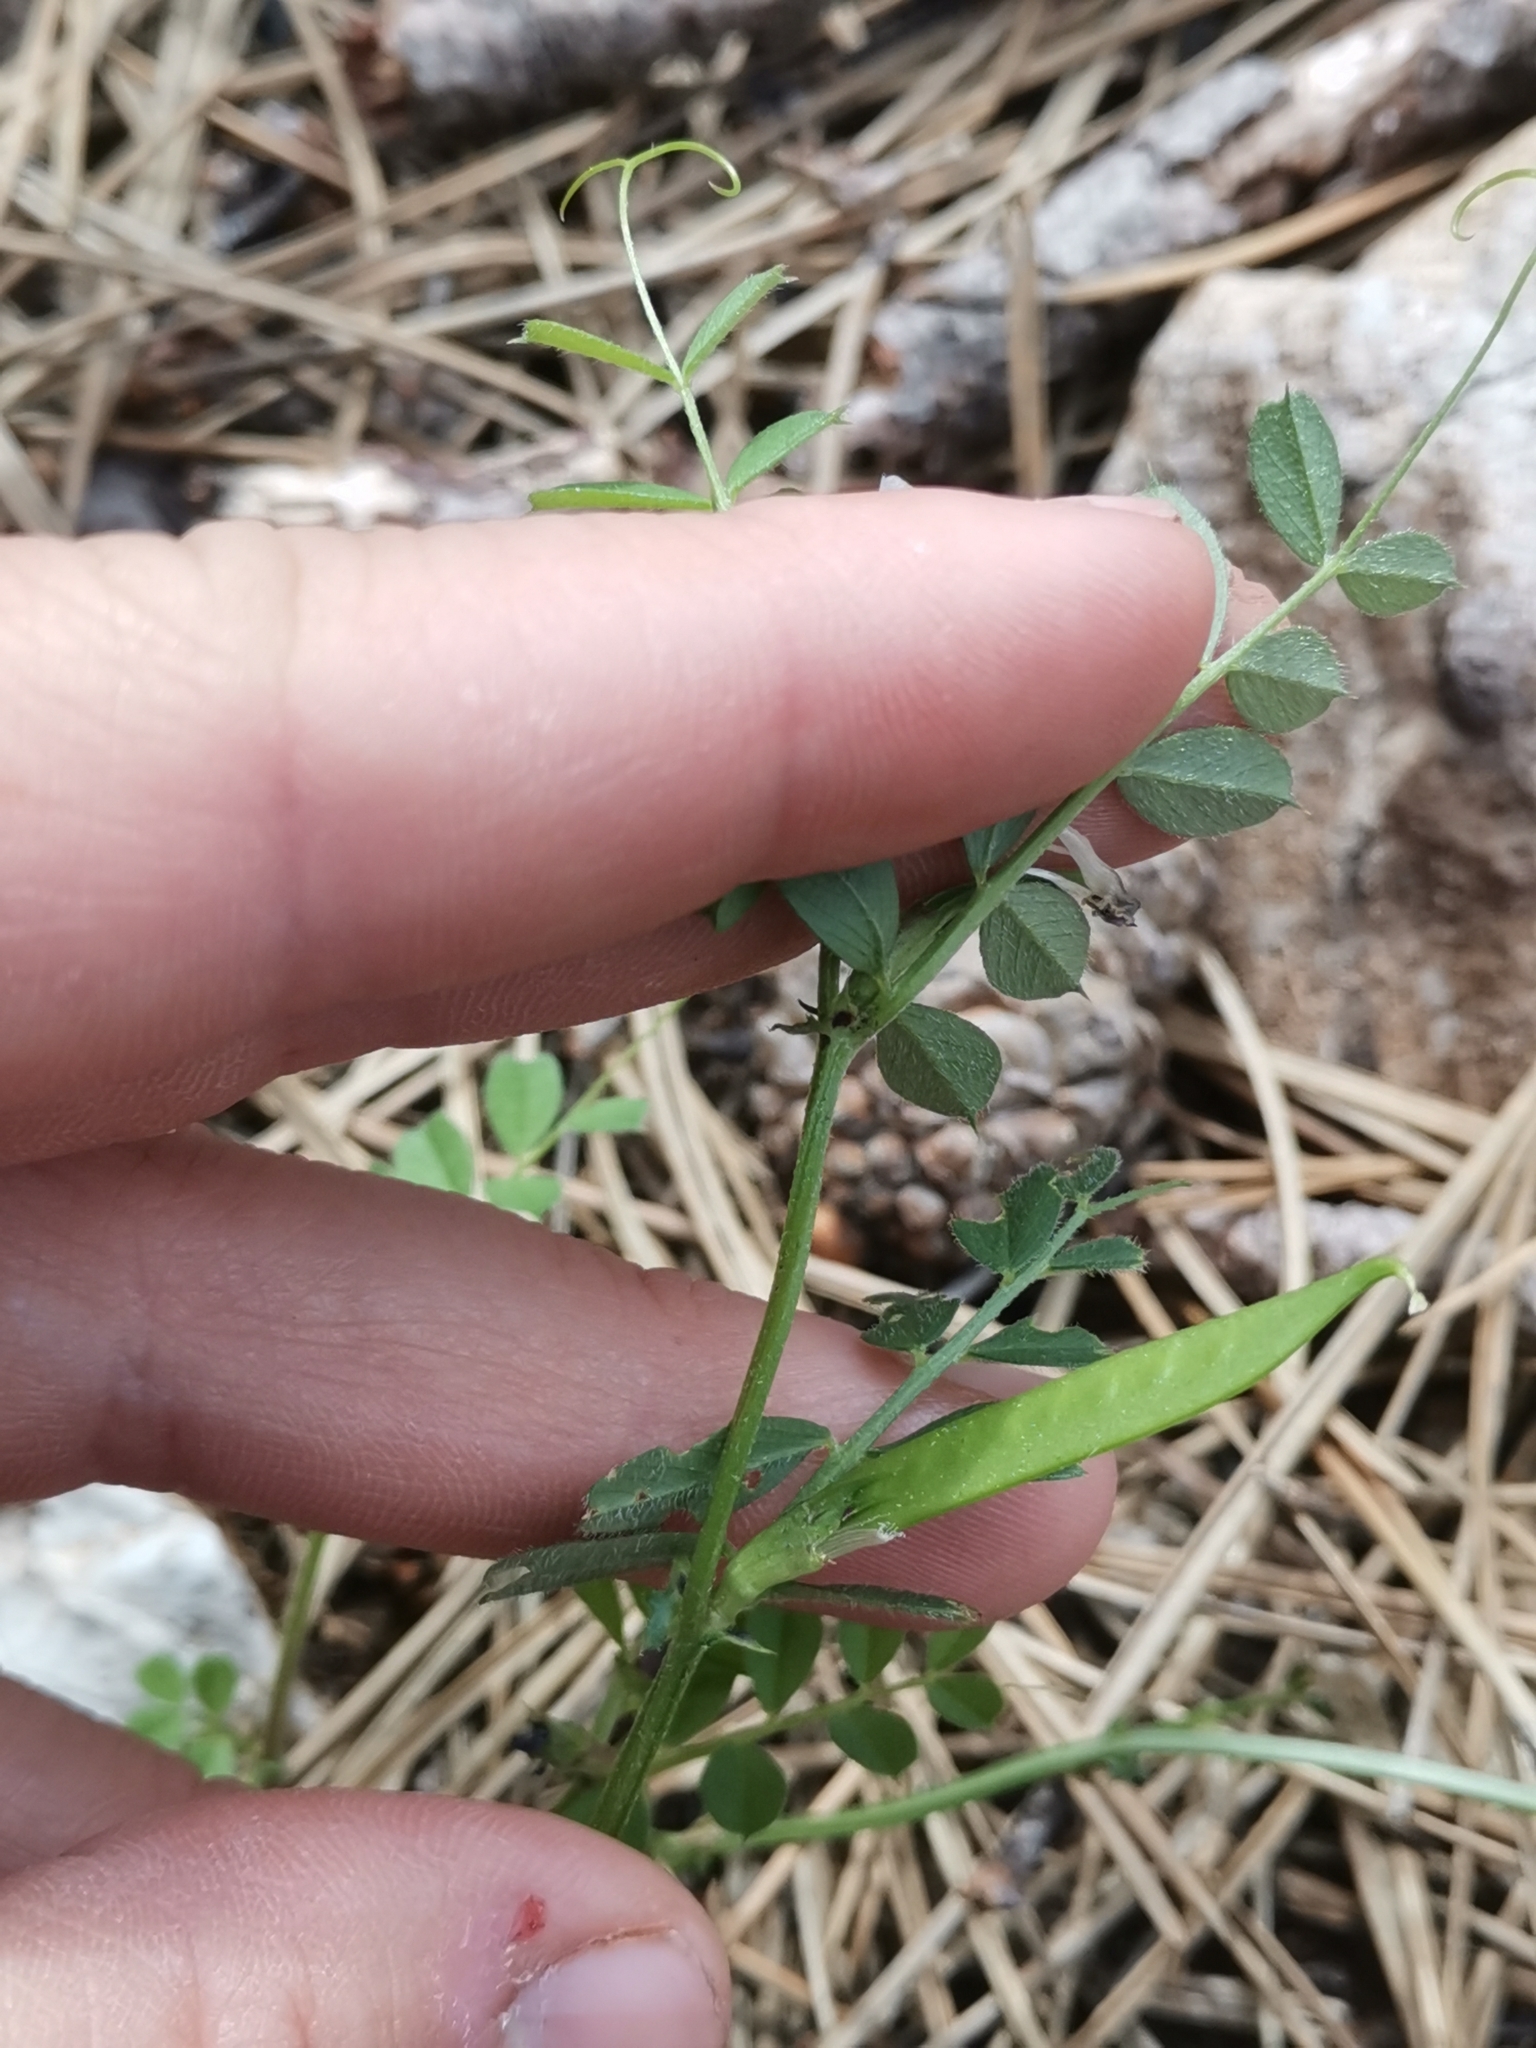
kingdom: Plantae
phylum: Tracheophyta
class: Magnoliopsida
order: Fabales
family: Fabaceae
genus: Vicia
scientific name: Vicia sativa
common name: Garden vetch
